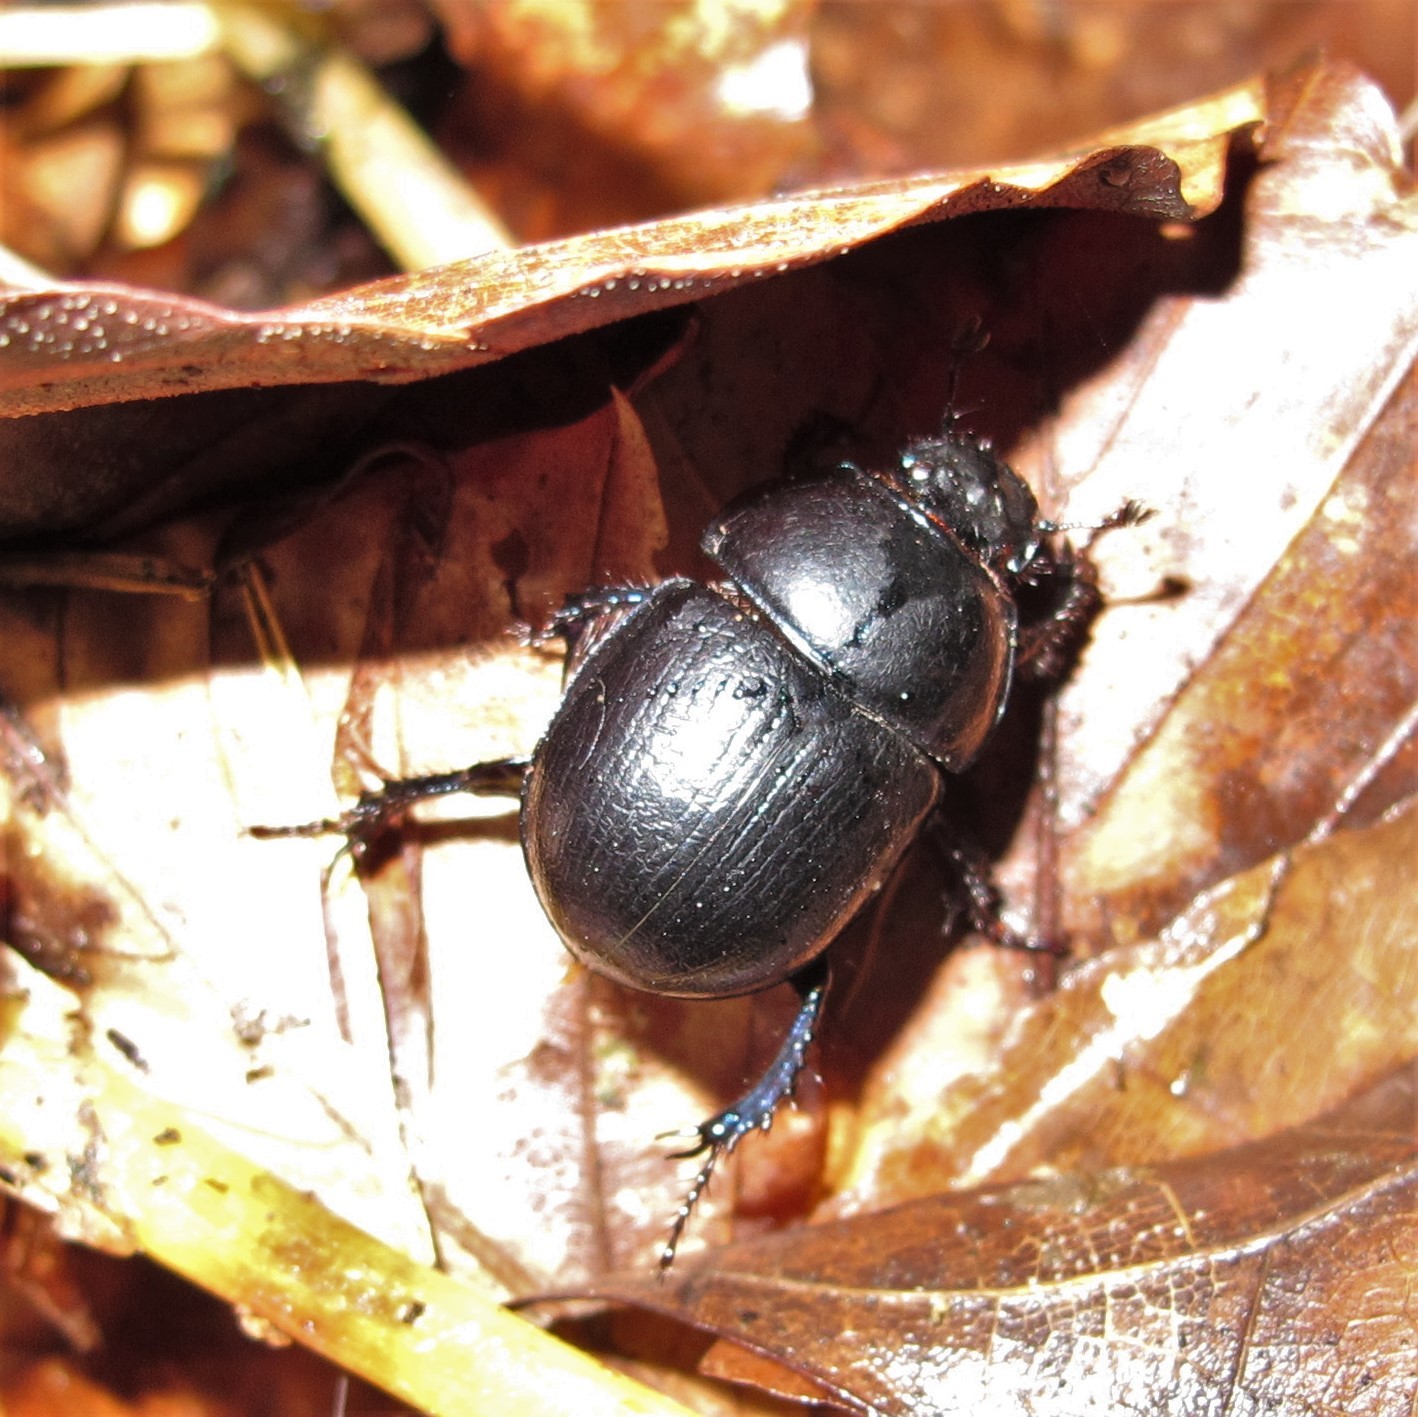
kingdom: Animalia
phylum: Arthropoda
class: Insecta
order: Coleoptera
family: Geotrupidae
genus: Anoplotrupes
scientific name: Anoplotrupes stercorosus
